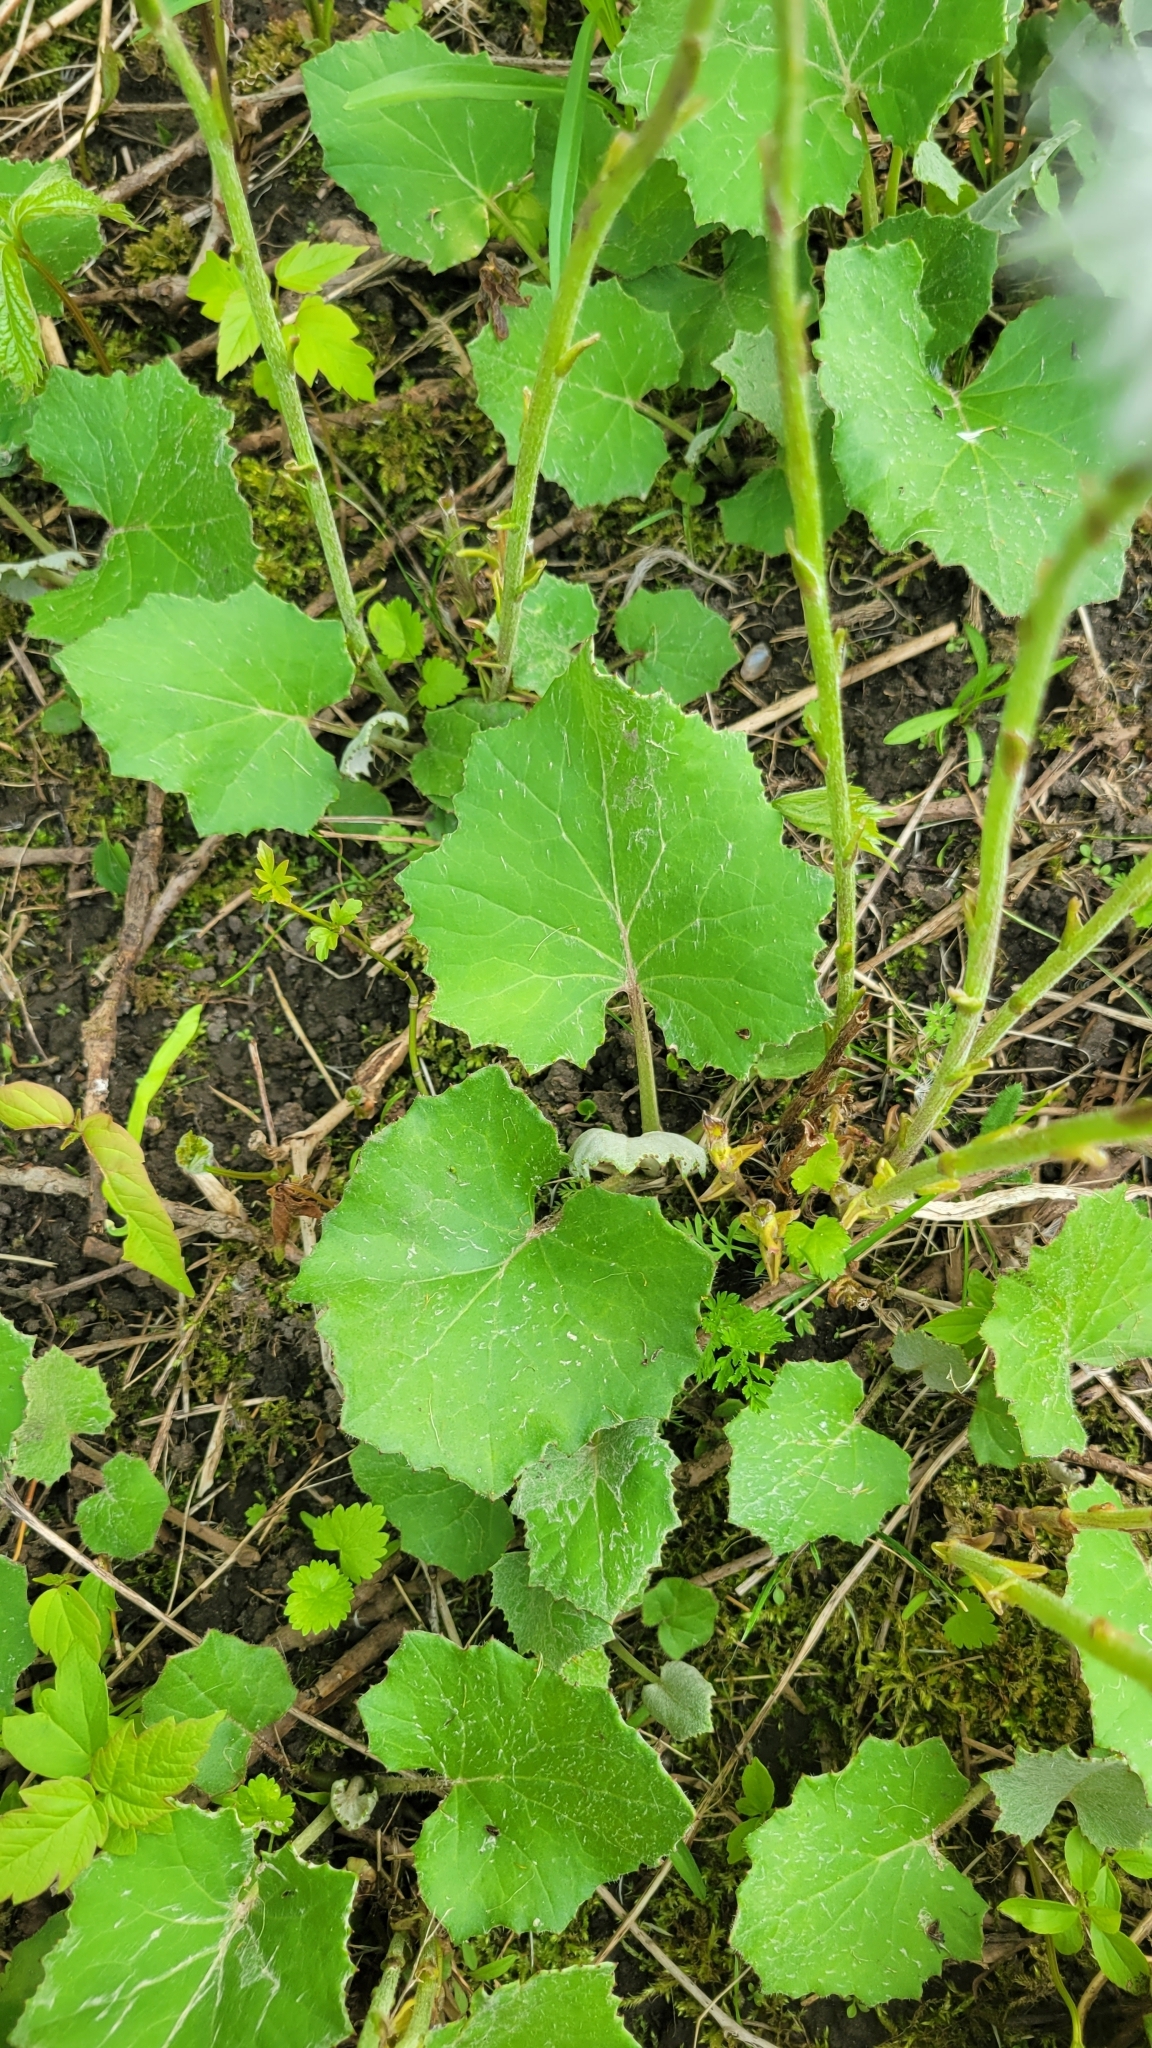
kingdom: Plantae
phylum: Tracheophyta
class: Magnoliopsida
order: Asterales
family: Asteraceae
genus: Tussilago
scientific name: Tussilago farfara
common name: Coltsfoot
